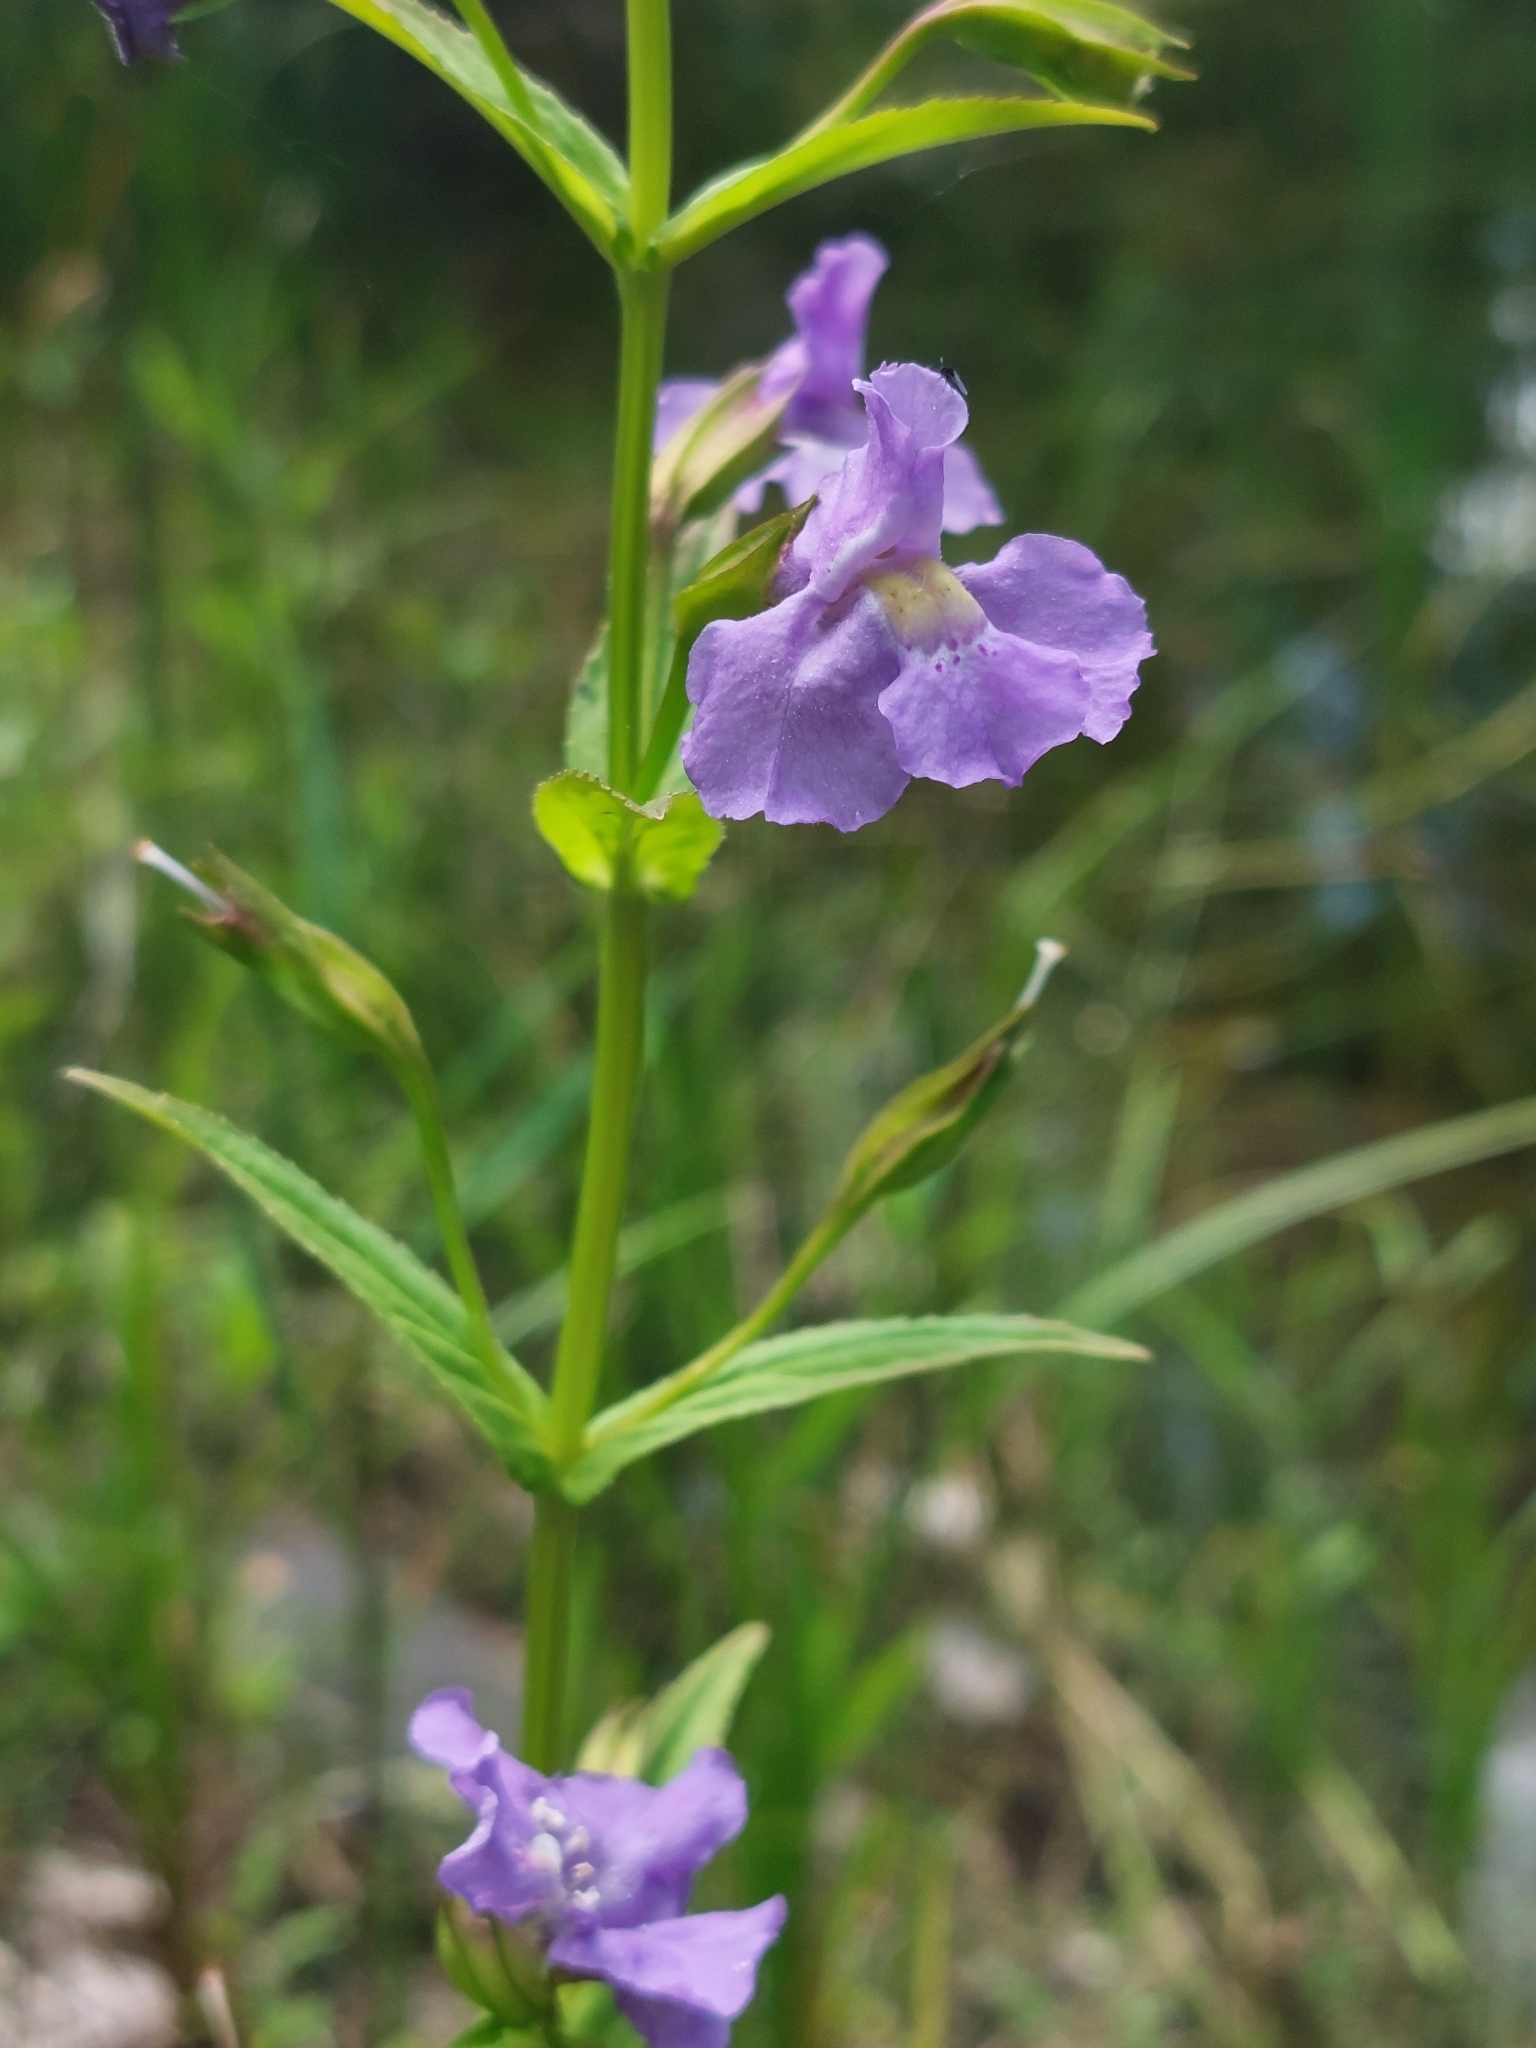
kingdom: Plantae
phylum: Tracheophyta
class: Magnoliopsida
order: Lamiales
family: Phrymaceae
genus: Mimulus
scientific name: Mimulus ringens
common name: Allegheny monkeyflower
